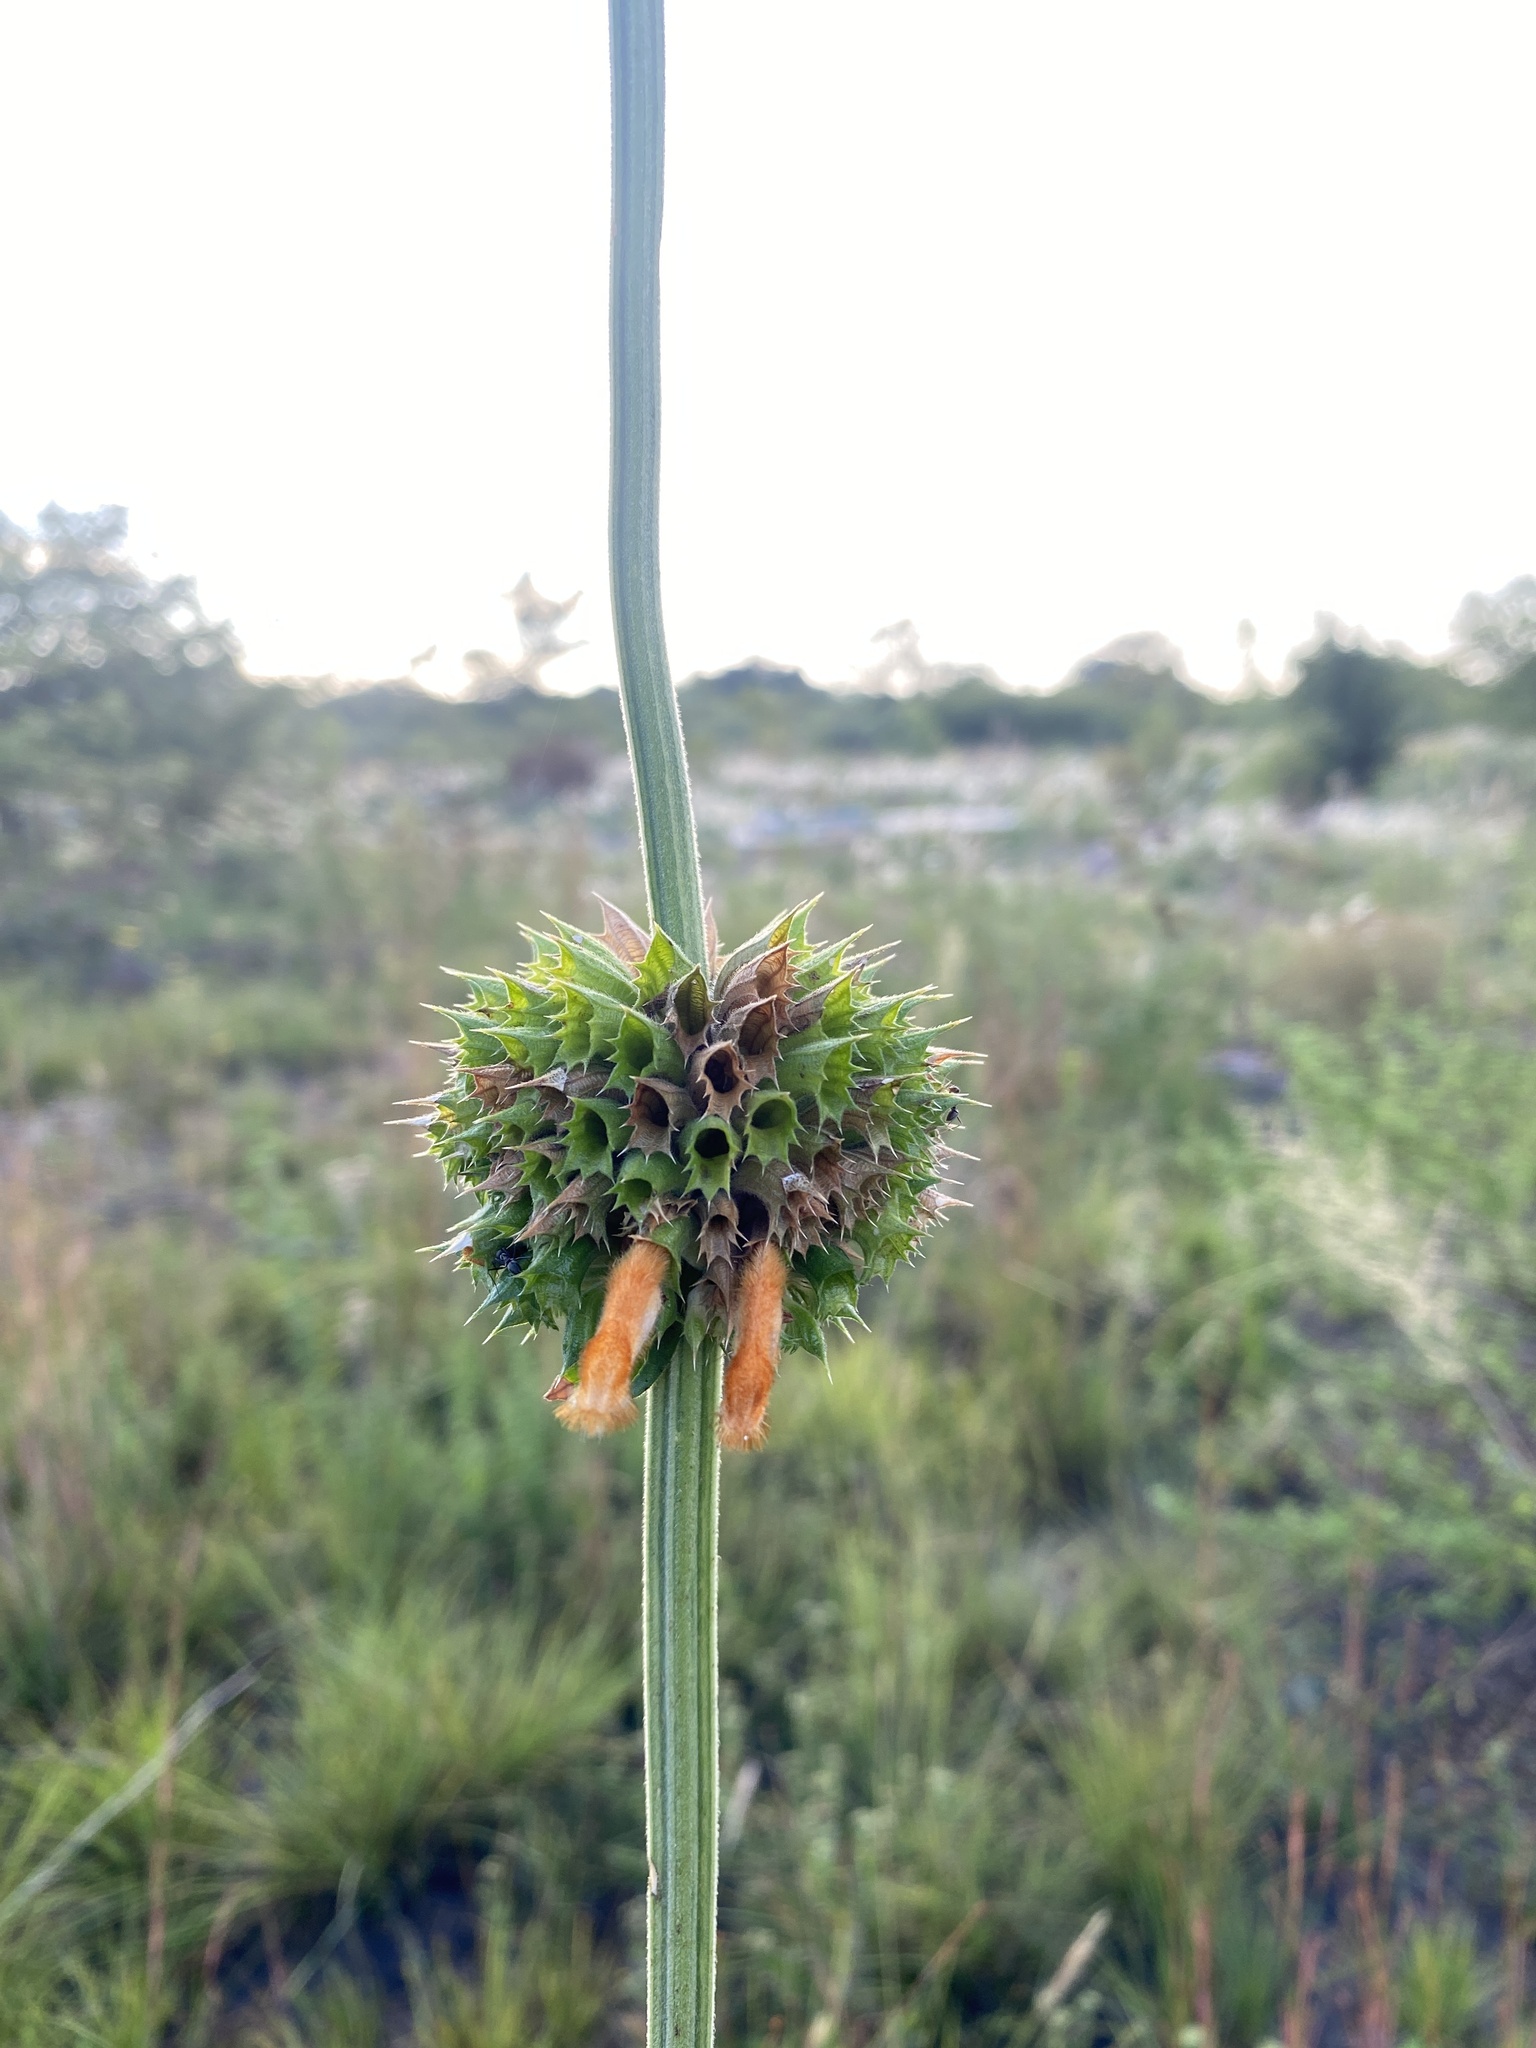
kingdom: Plantae
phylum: Tracheophyta
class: Magnoliopsida
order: Lamiales
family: Lamiaceae
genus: Leonotis
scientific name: Leonotis ocymifolia
